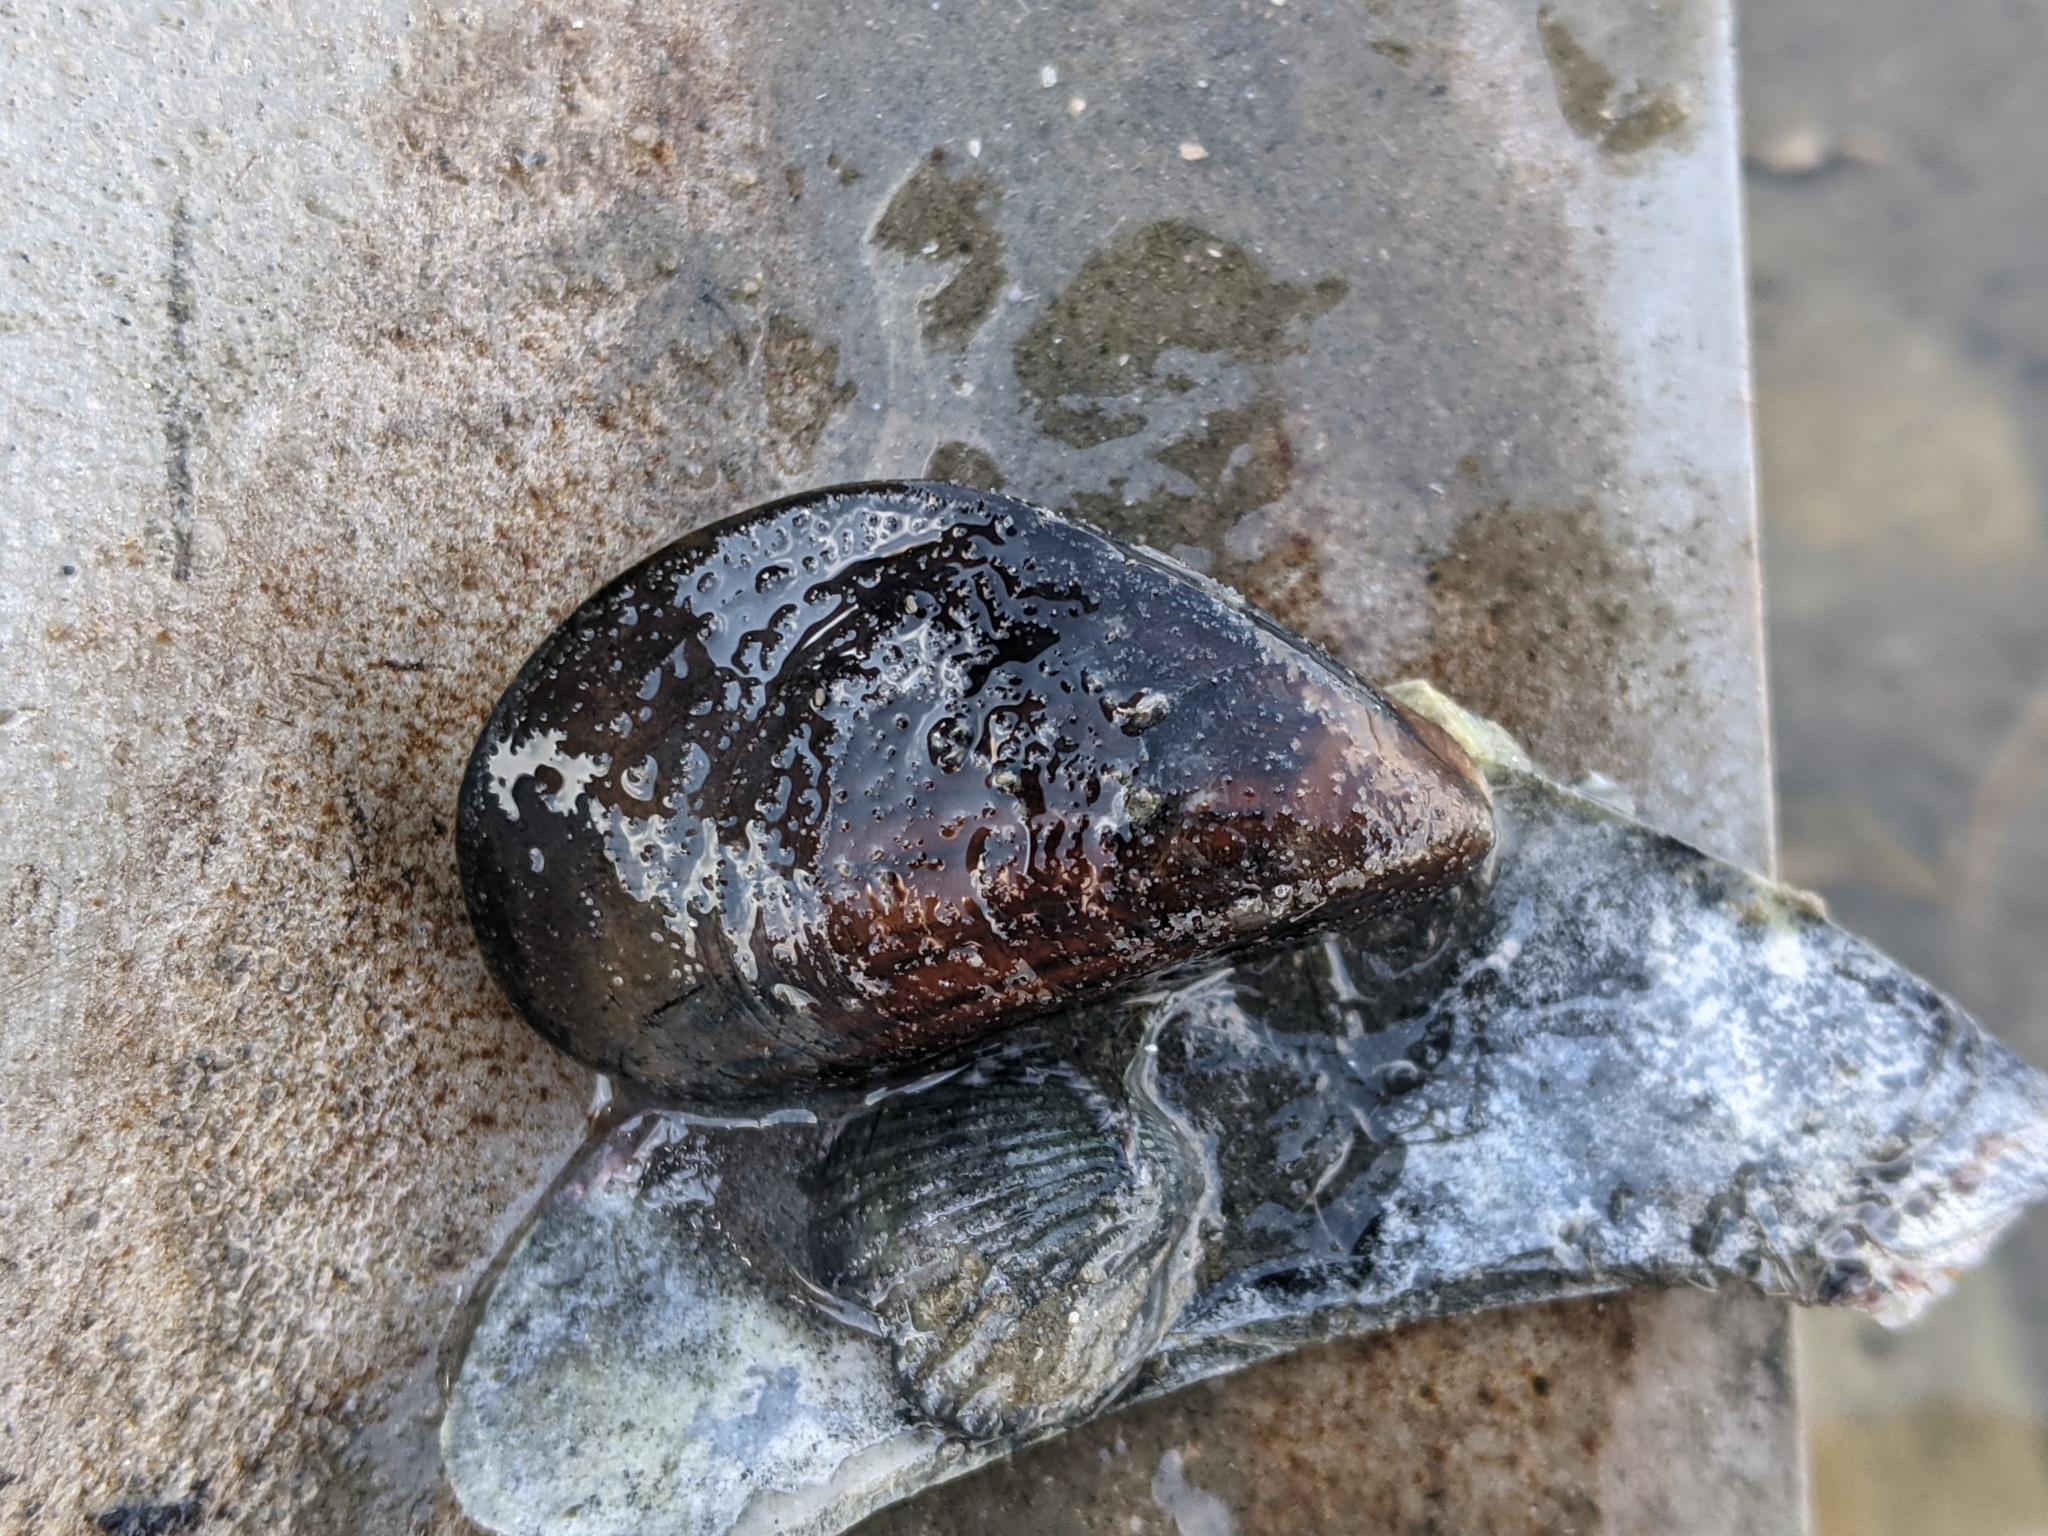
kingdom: Animalia
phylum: Mollusca
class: Bivalvia
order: Mytilida
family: Mytilidae
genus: Mytilus
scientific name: Mytilus edulis
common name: Blue mussel
